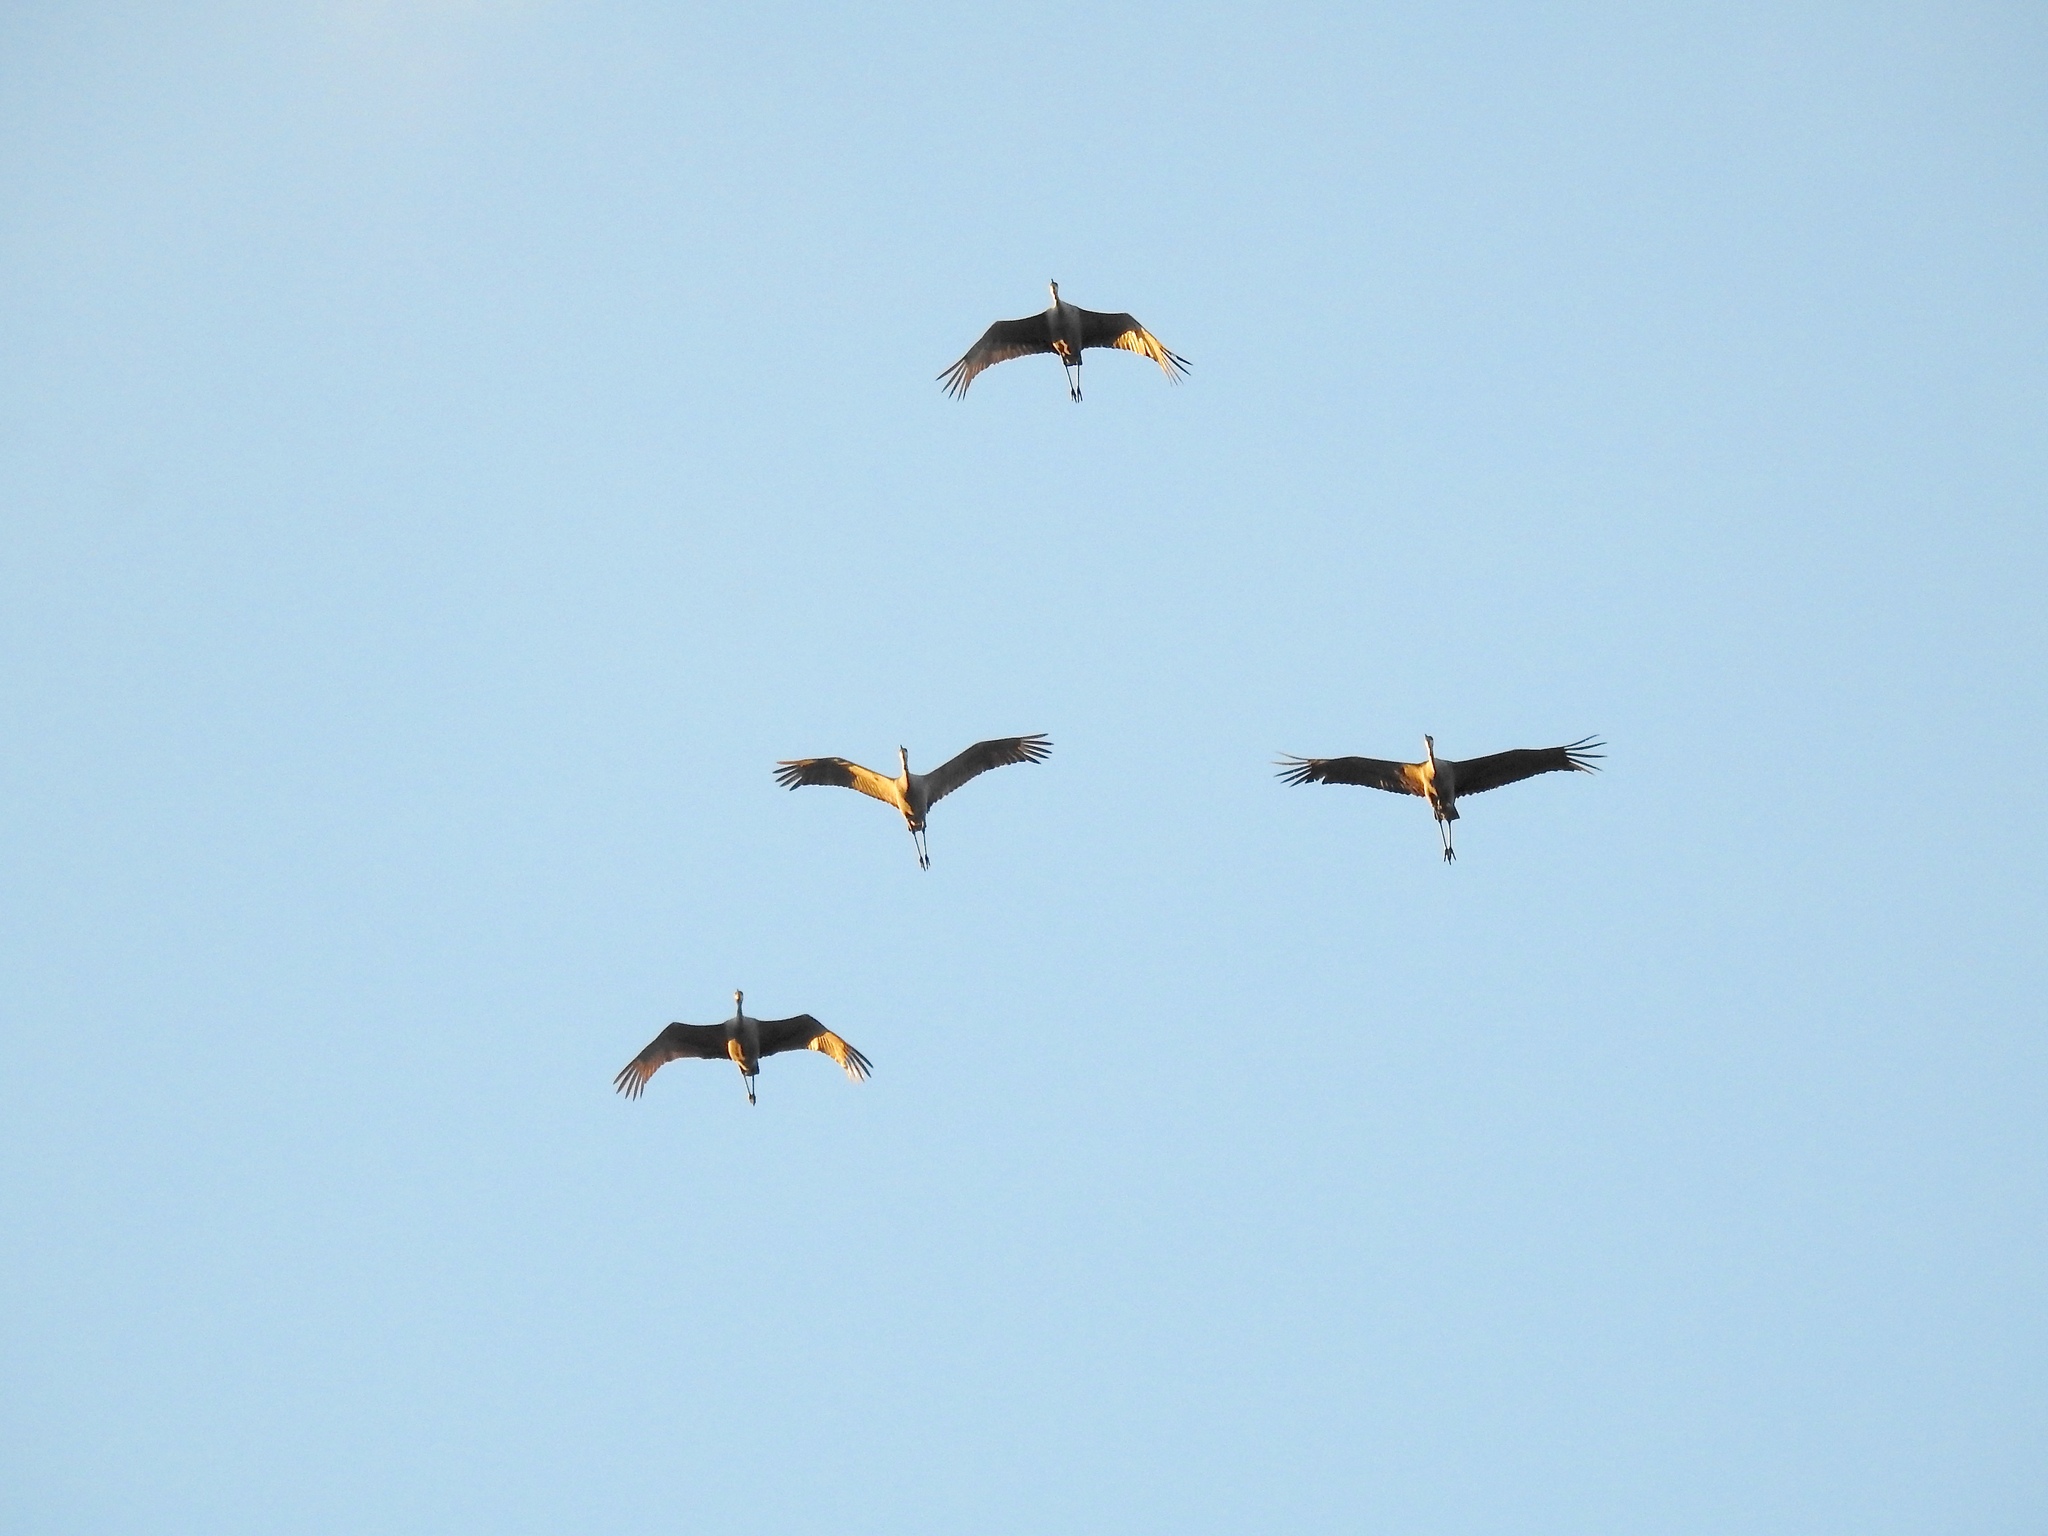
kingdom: Animalia
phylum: Chordata
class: Aves
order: Gruiformes
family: Gruidae
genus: Grus
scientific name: Grus canadensis
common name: Sandhill crane
